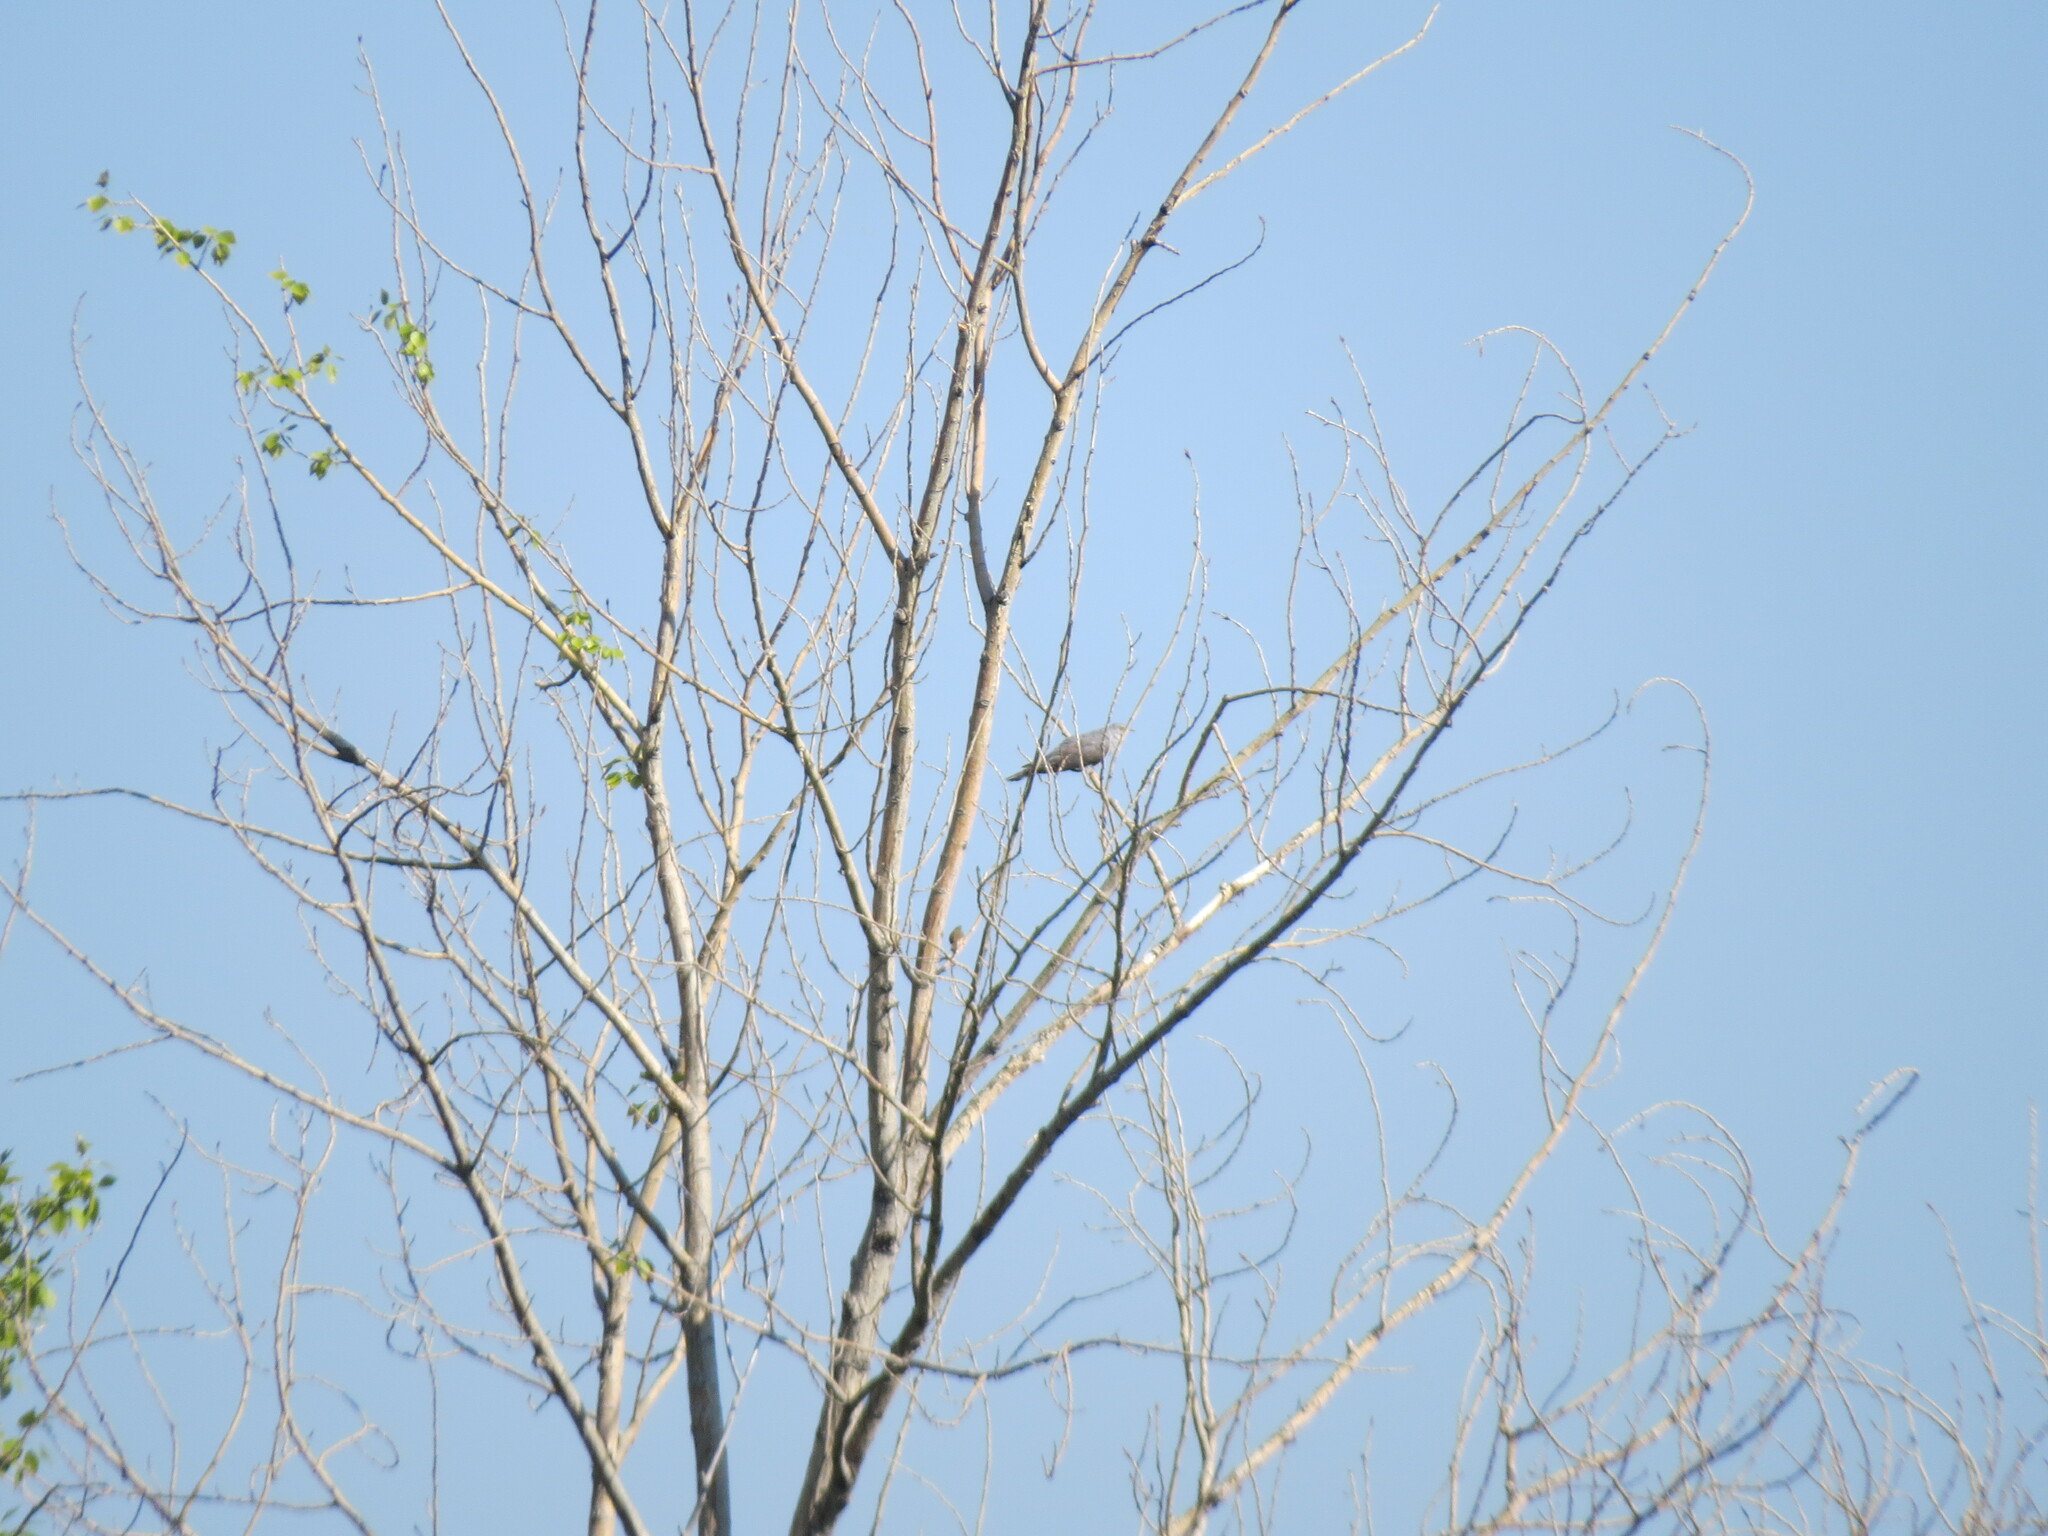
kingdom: Animalia
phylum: Chordata
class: Aves
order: Cuculiformes
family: Cuculidae
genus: Cuculus
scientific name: Cuculus canorus
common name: Common cuckoo
